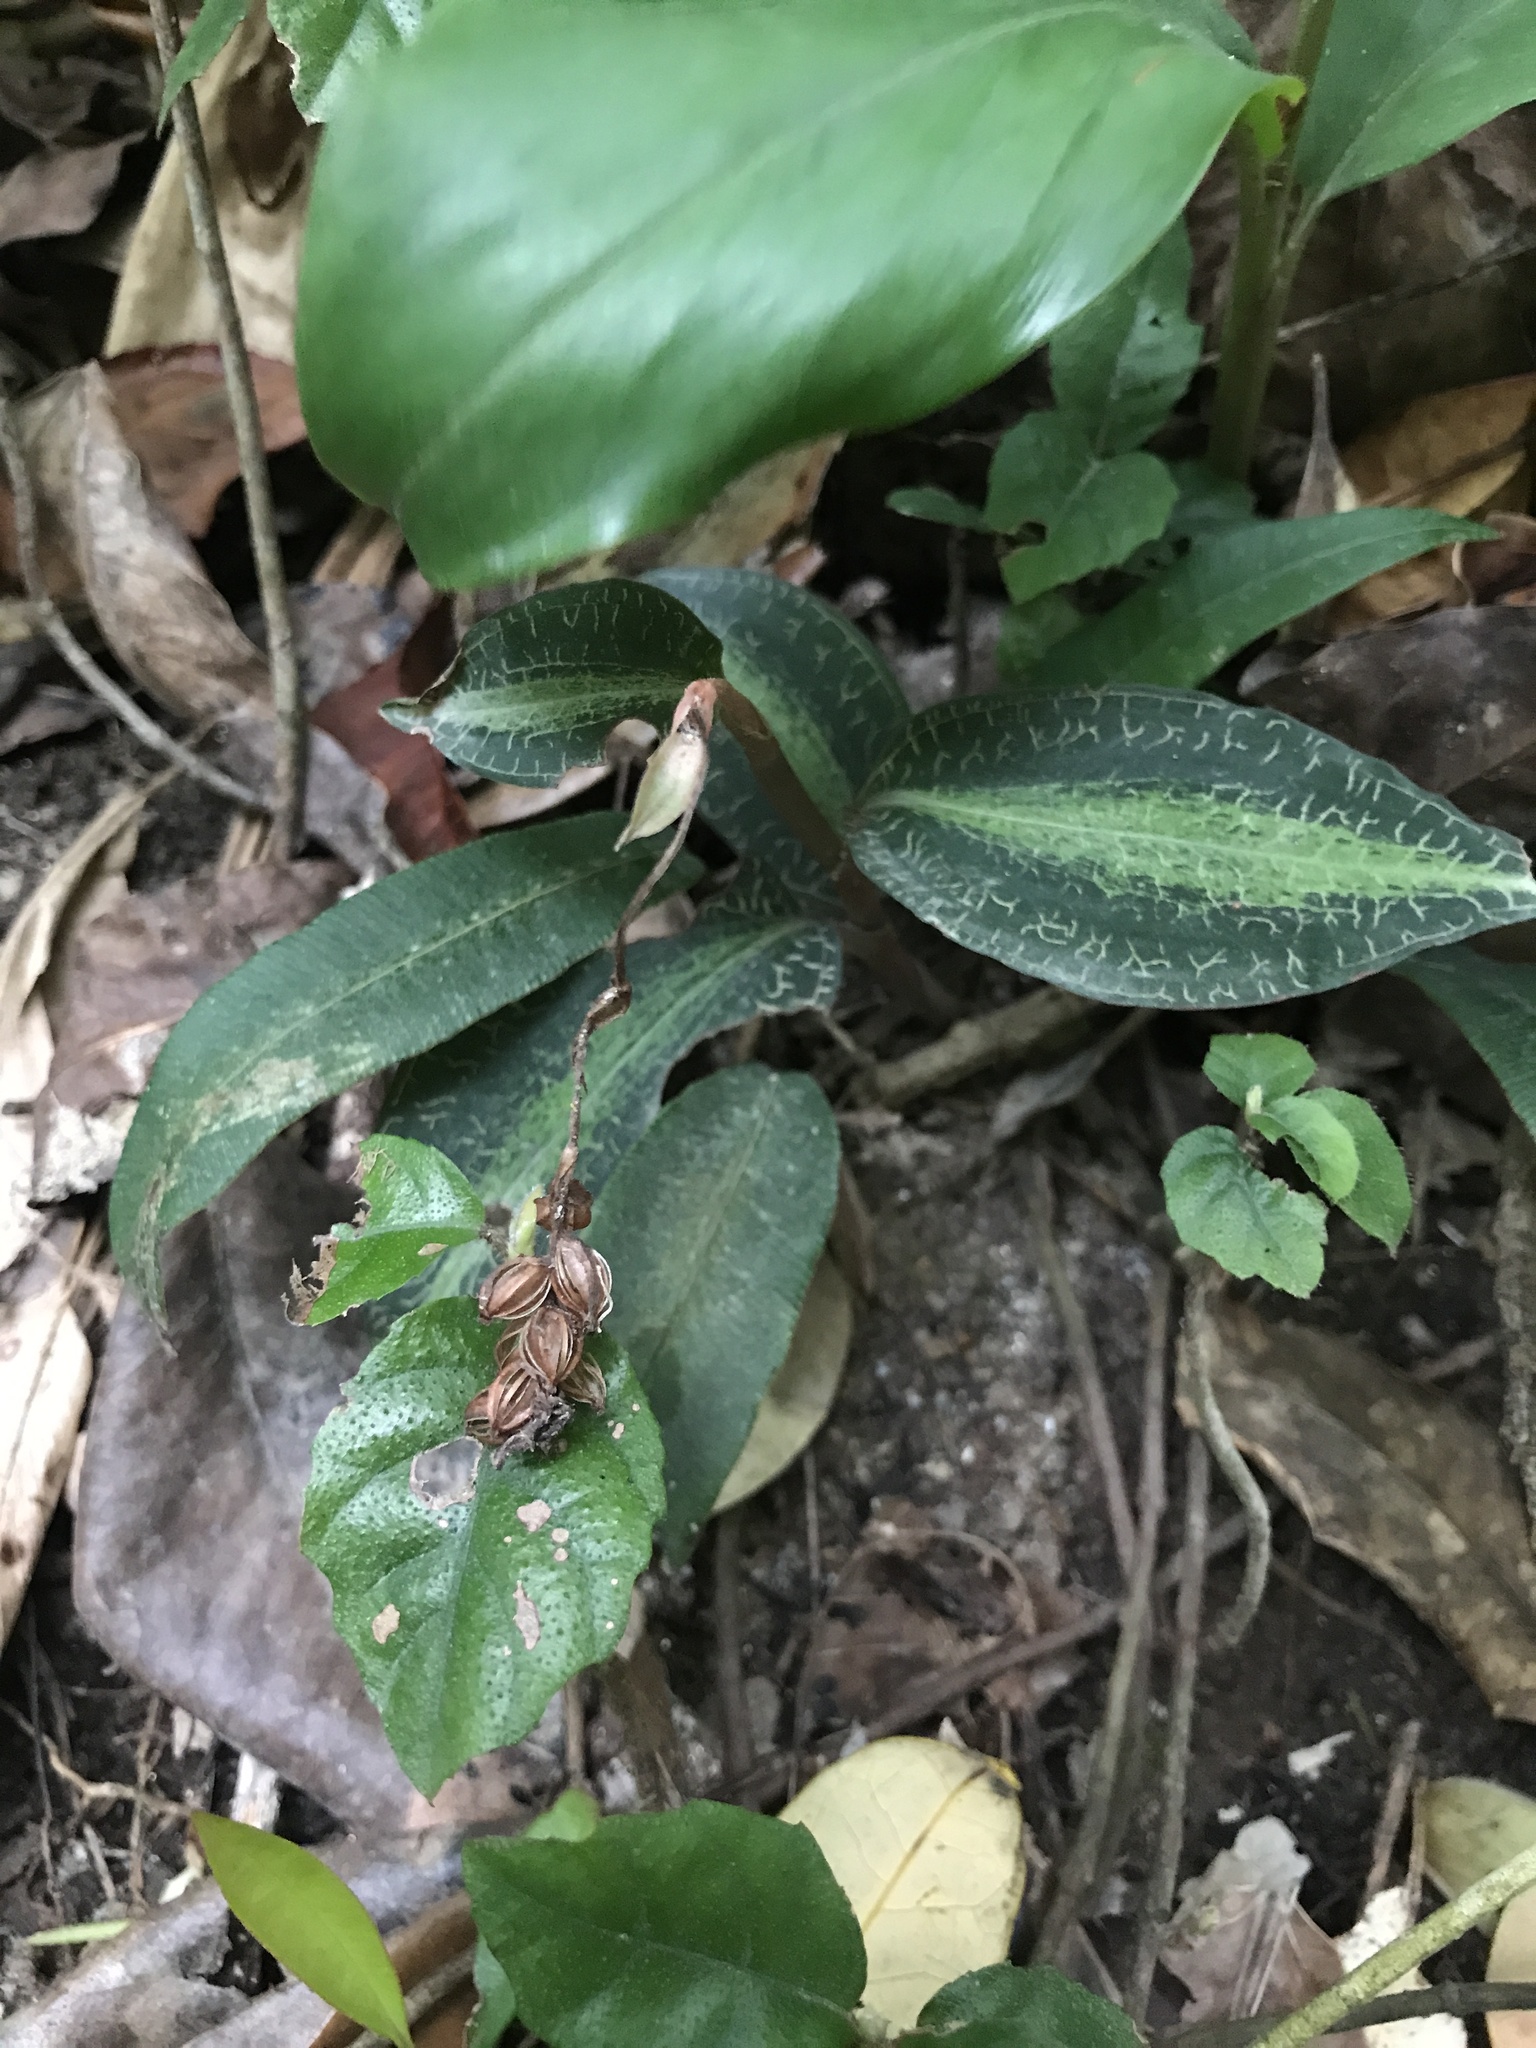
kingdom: Plantae
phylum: Tracheophyta
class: Liliopsida
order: Asparagales
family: Orchidaceae
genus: Goodyera
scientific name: Goodyera hachijoensis
